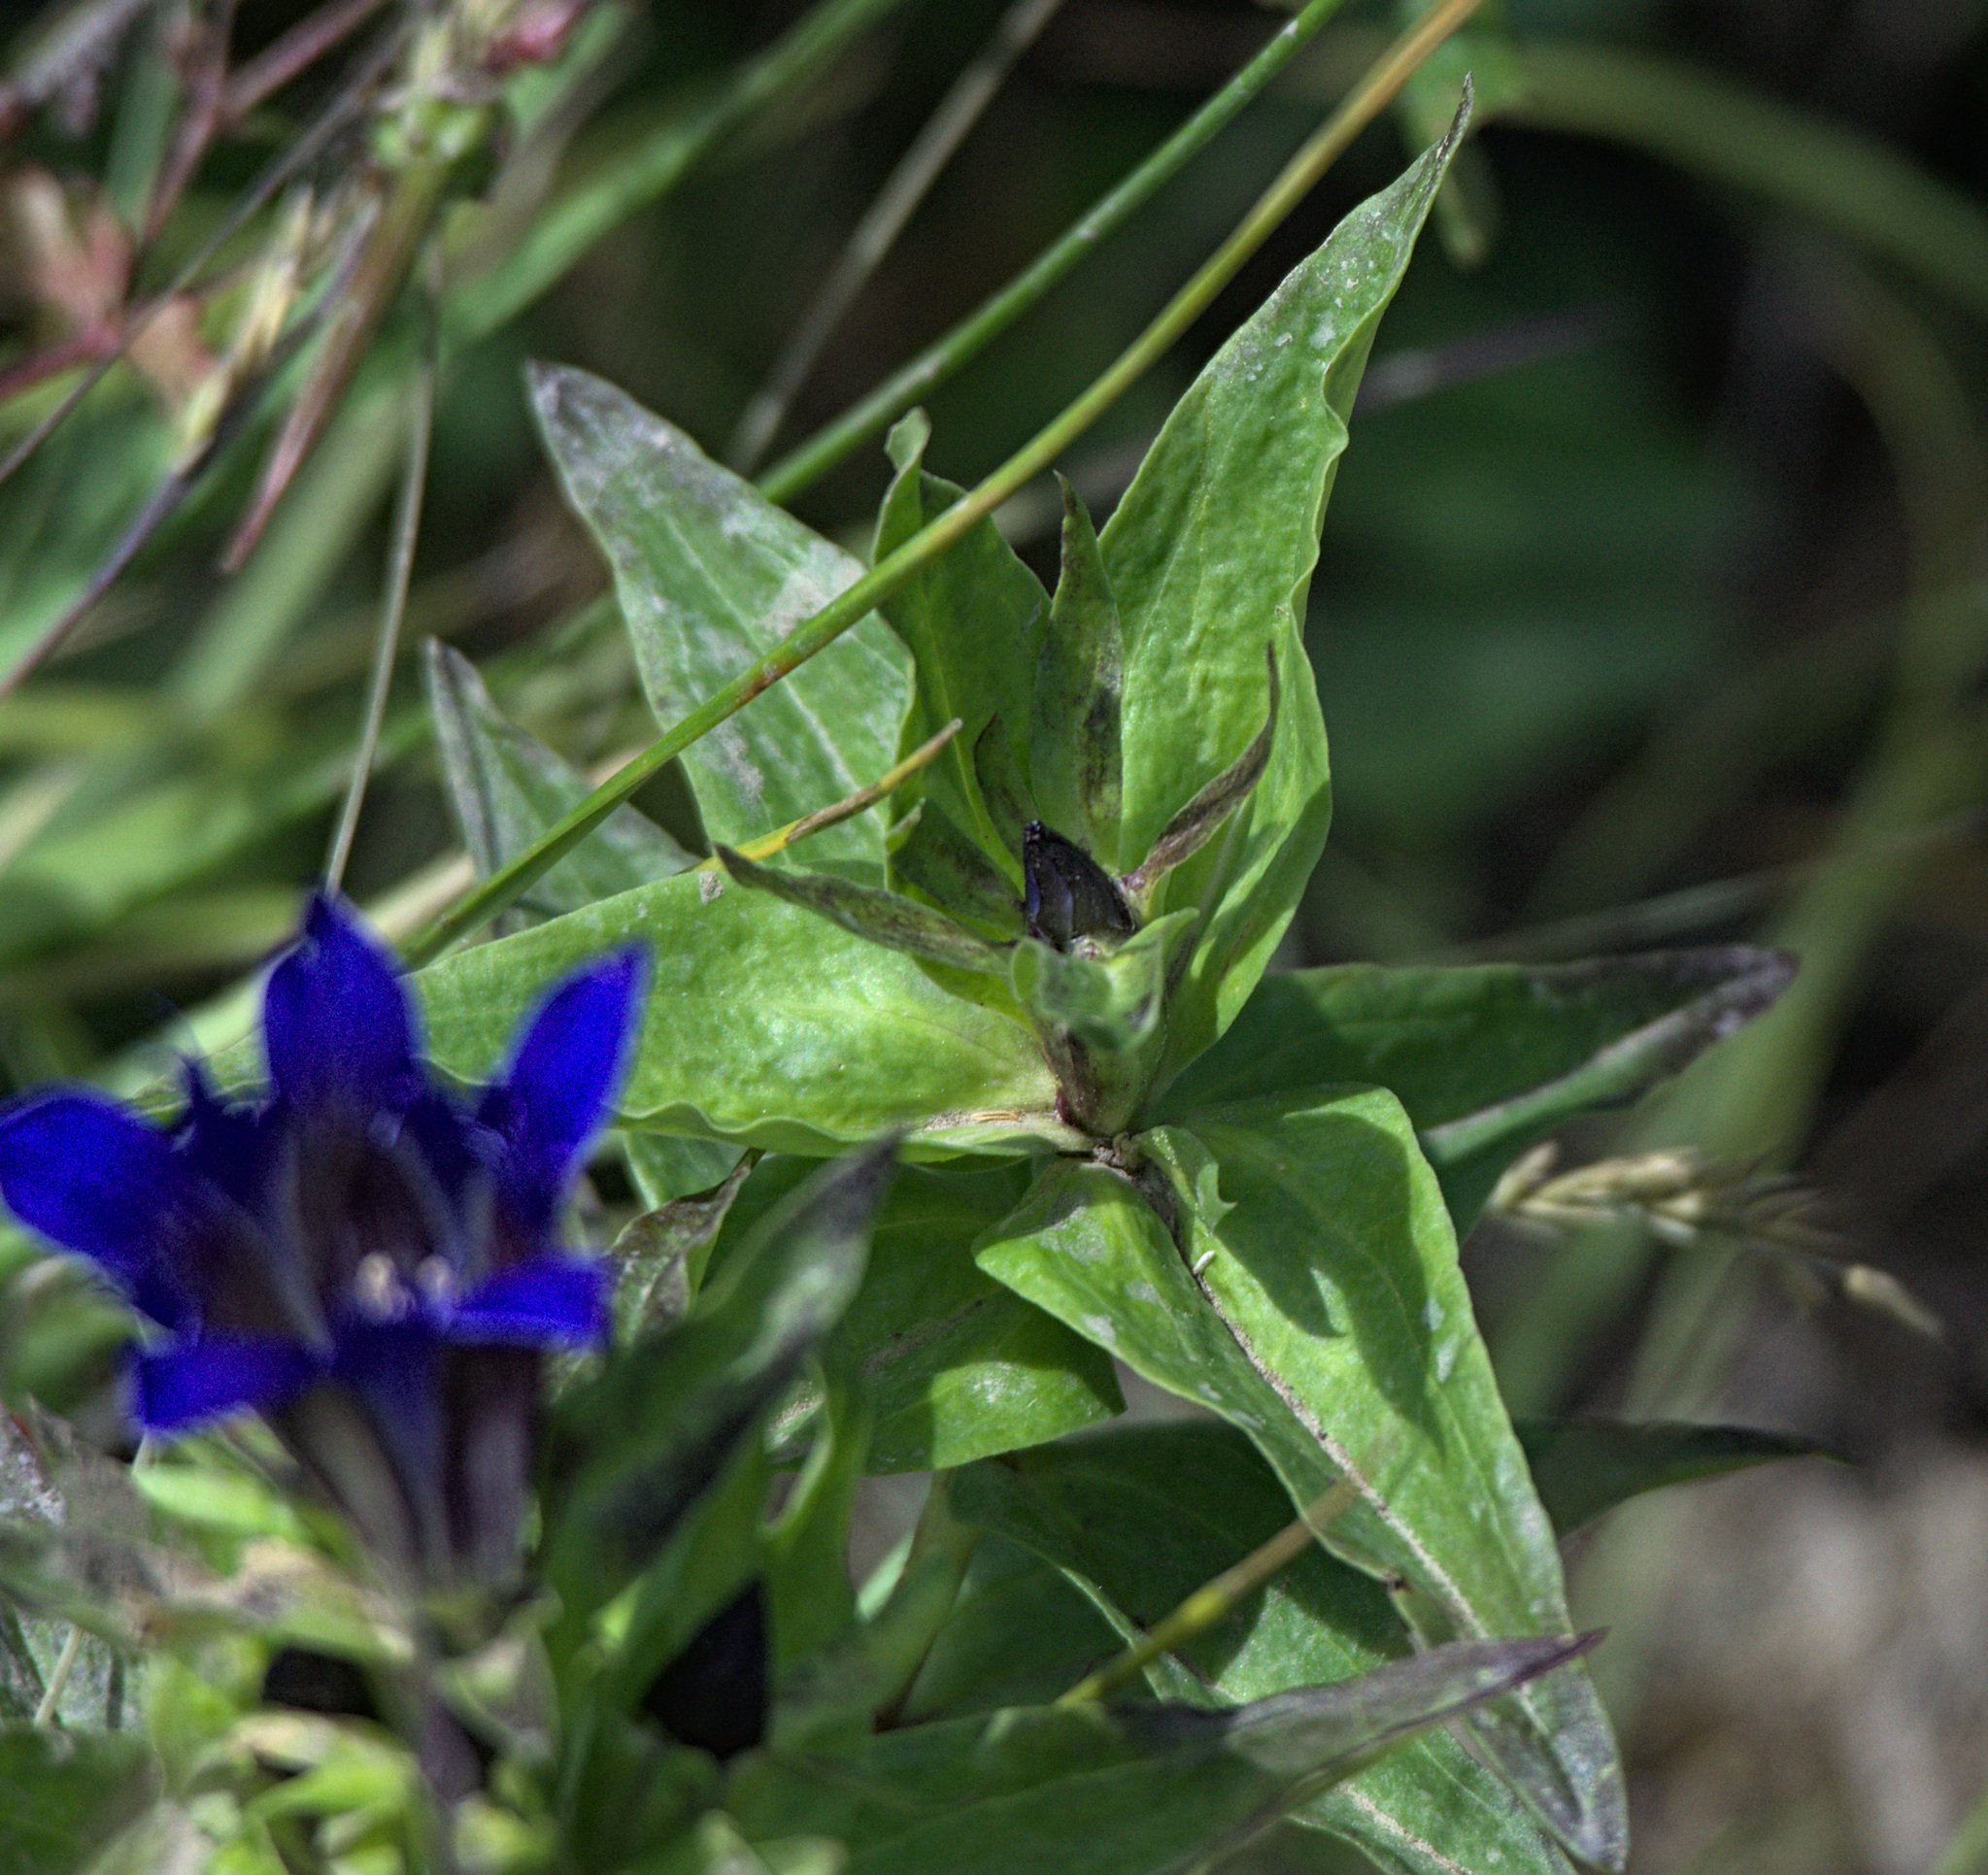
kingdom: Plantae
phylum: Tracheophyta
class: Magnoliopsida
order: Gentianales
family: Gentianaceae
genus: Gentiana
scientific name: Gentiana dschungarica
